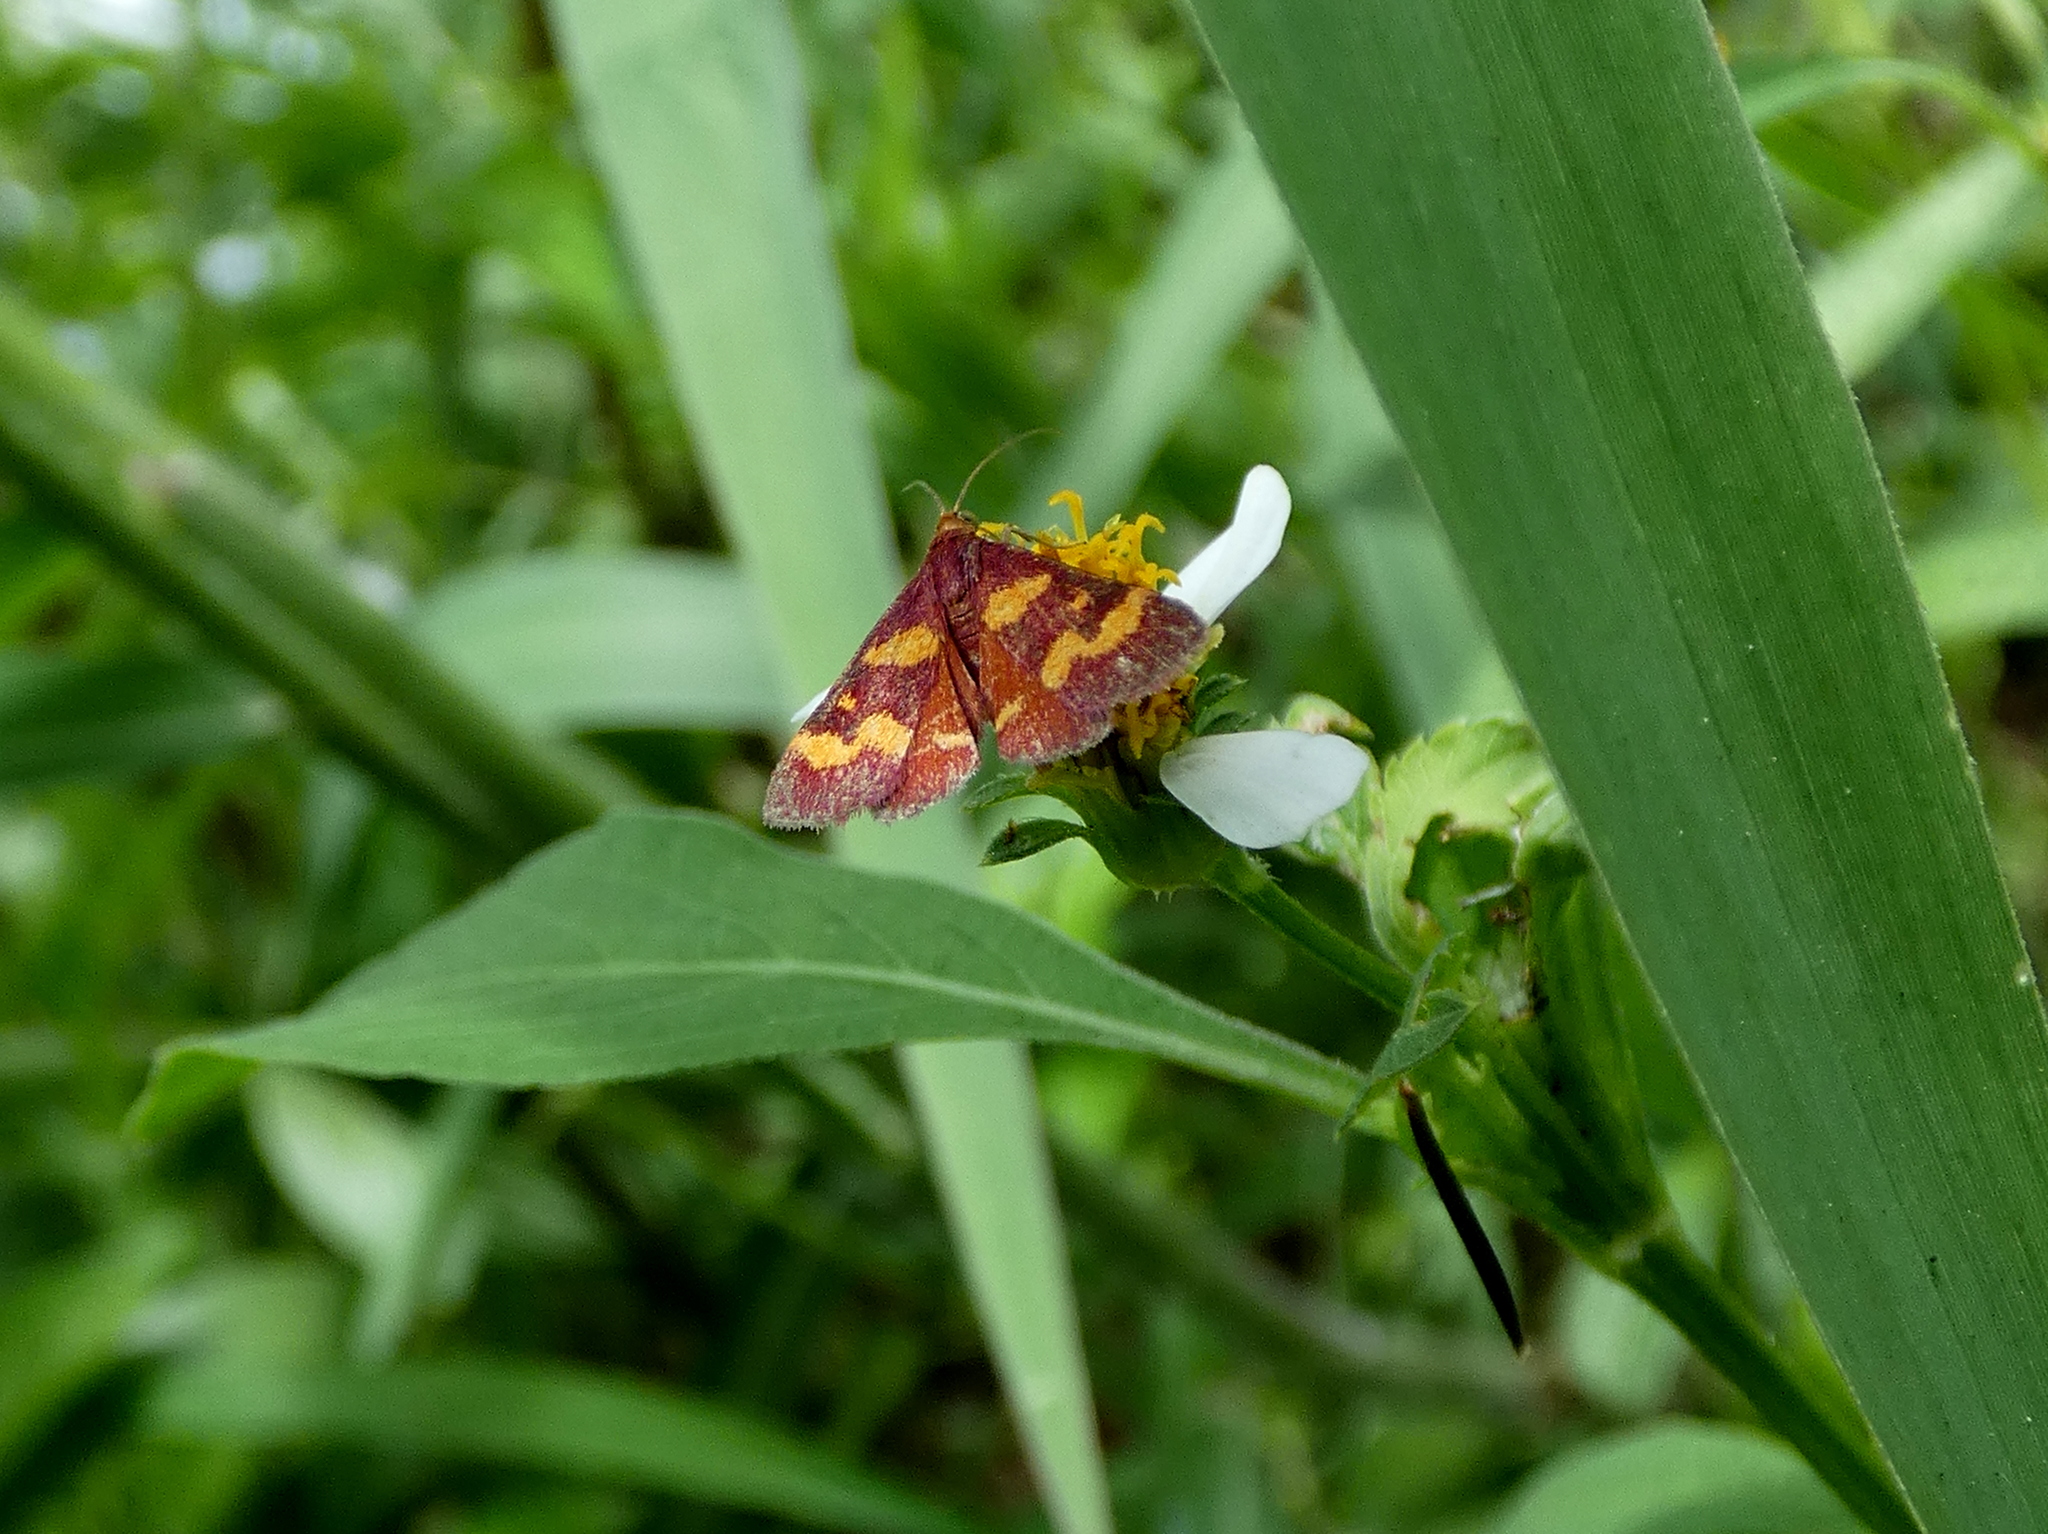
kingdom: Animalia
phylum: Arthropoda
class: Insecta
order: Lepidoptera
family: Crambidae
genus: Pyrausta
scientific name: Pyrausta tyralis
